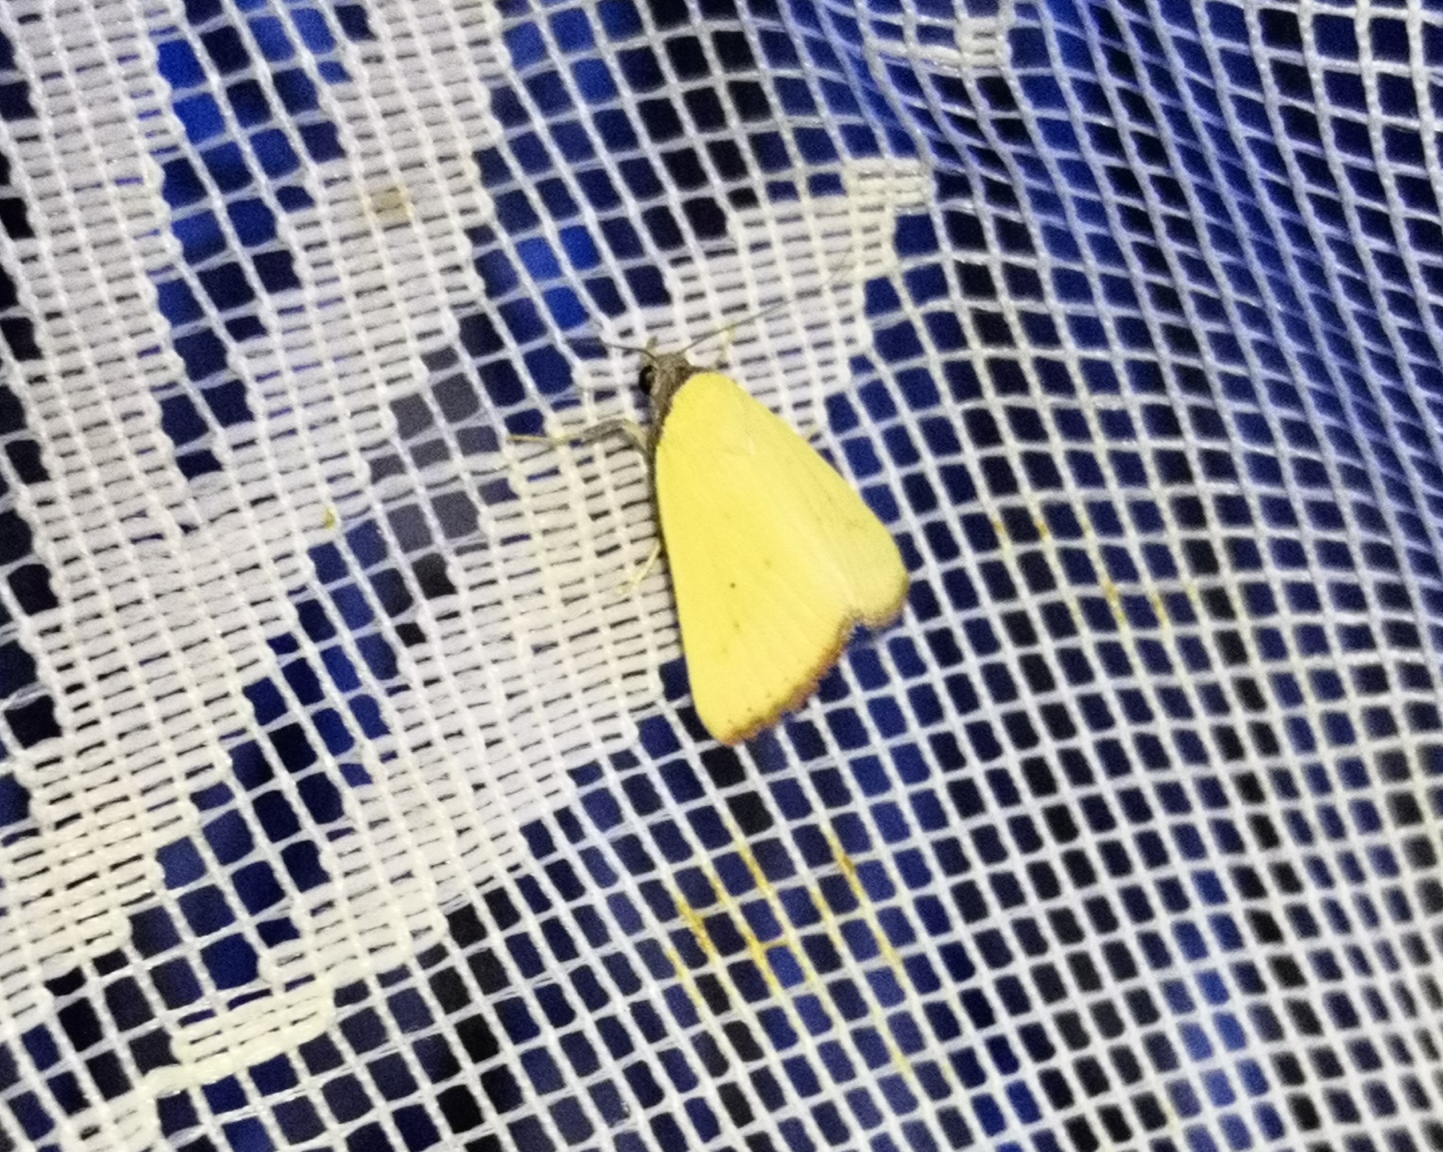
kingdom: Animalia
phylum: Arthropoda
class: Insecta
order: Lepidoptera
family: Erebidae
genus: Raparna
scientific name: Raparna conicephala
